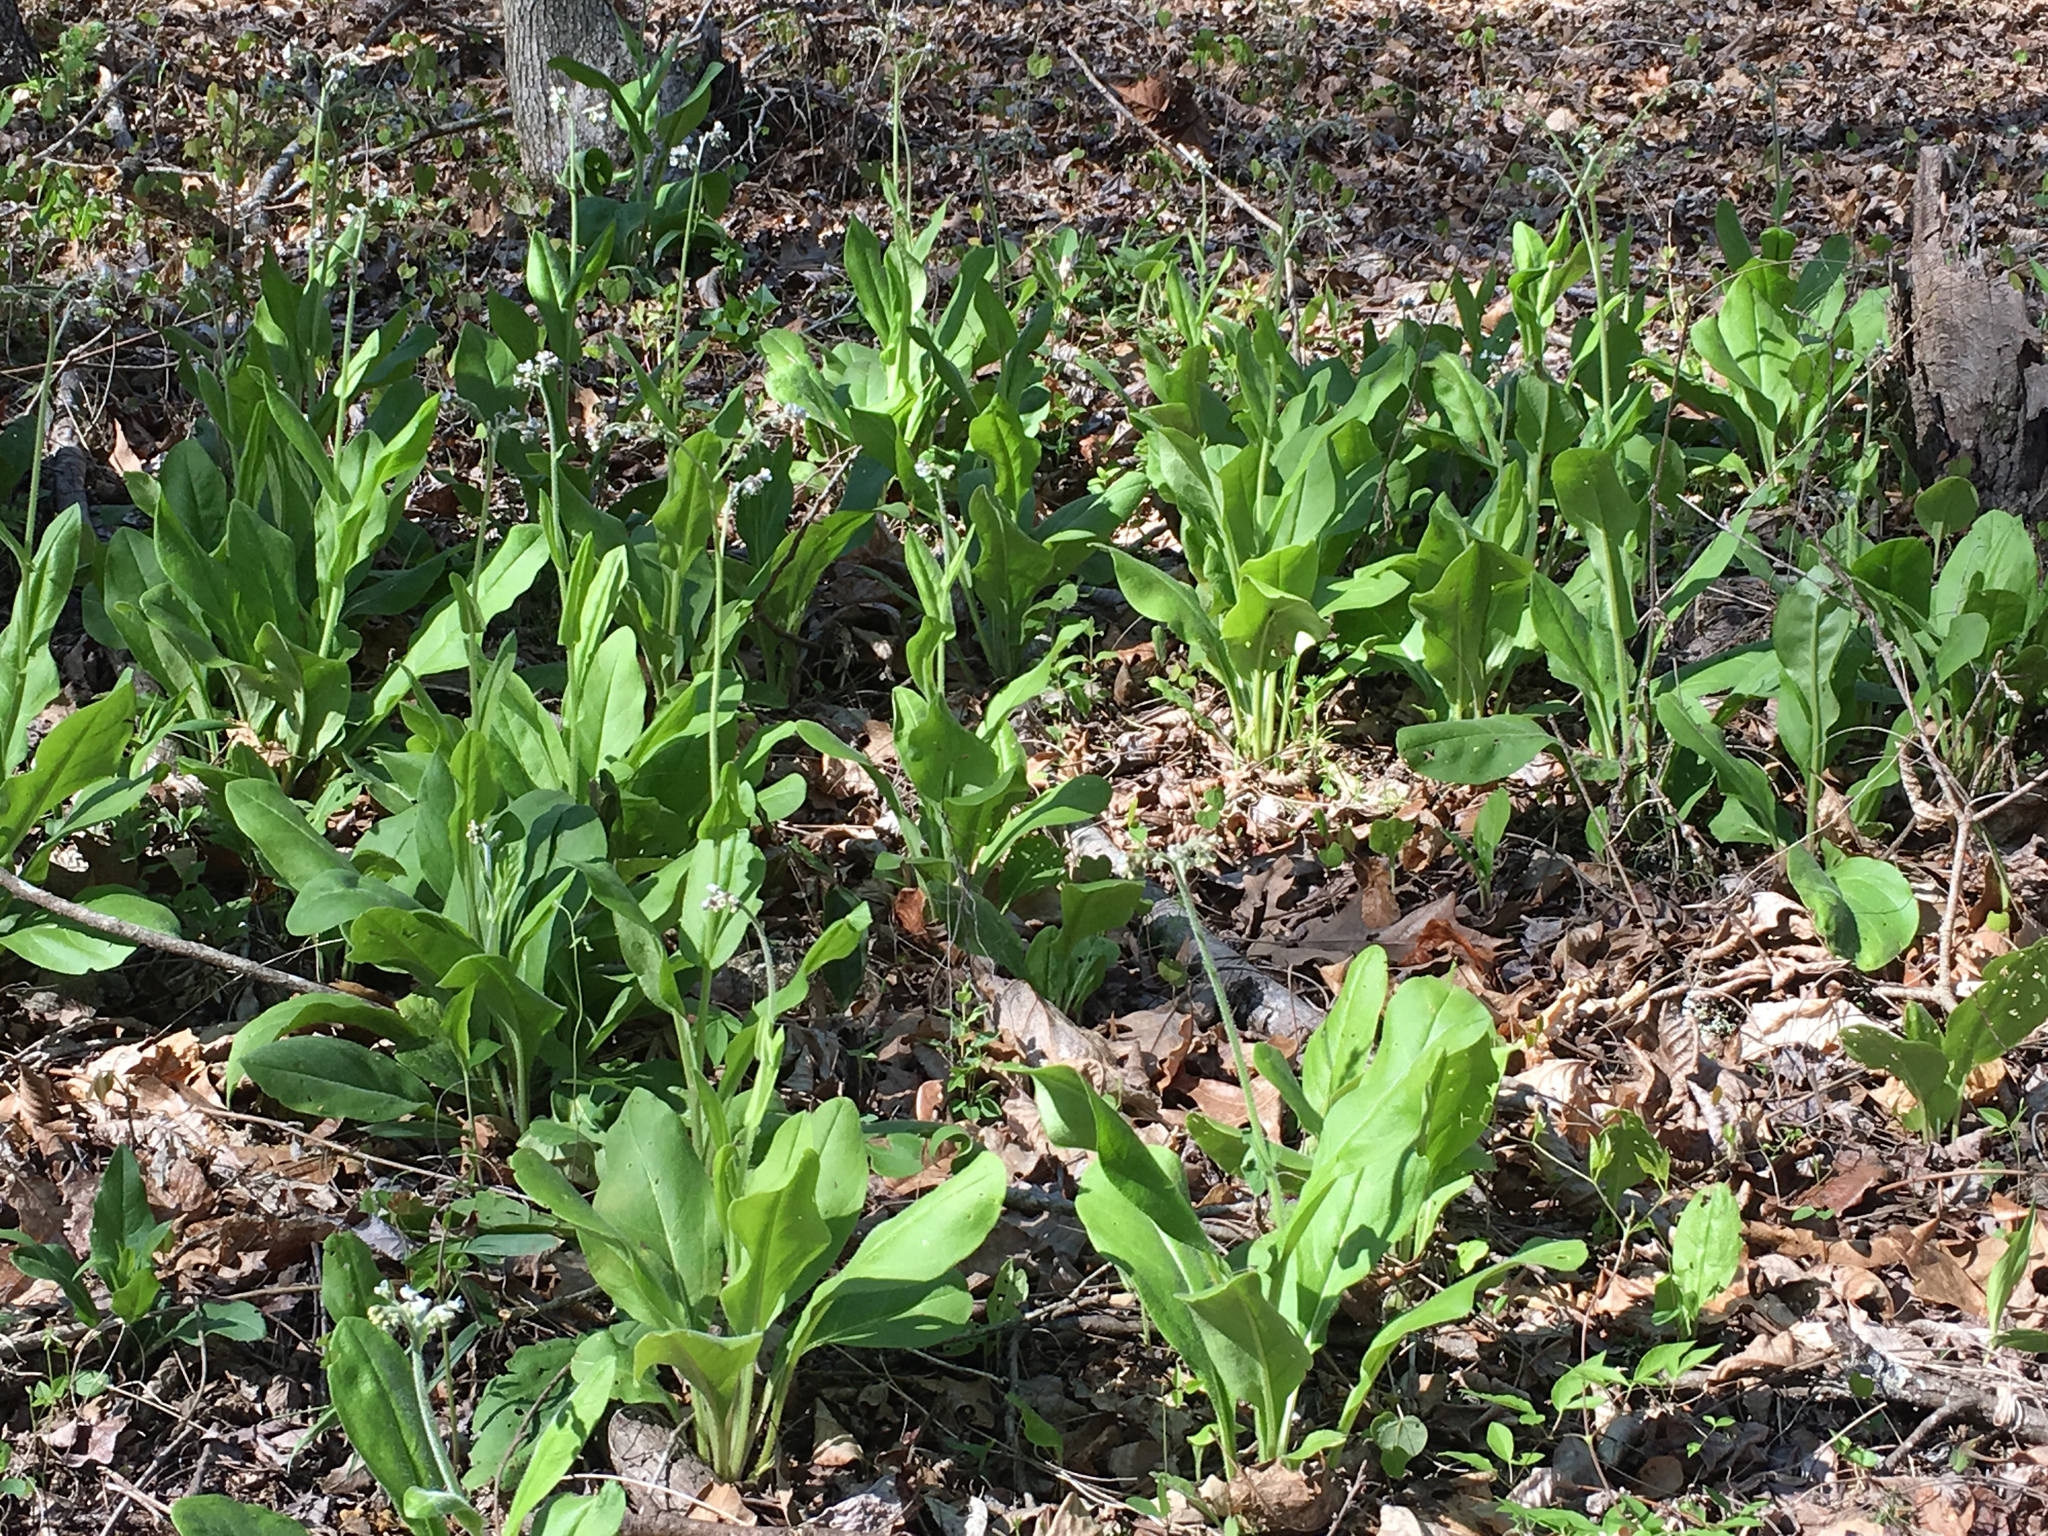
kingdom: Plantae
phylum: Tracheophyta
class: Magnoliopsida
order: Boraginales
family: Boraginaceae
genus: Andersonglossum
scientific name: Andersonglossum virginianum
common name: Wild comfrey
